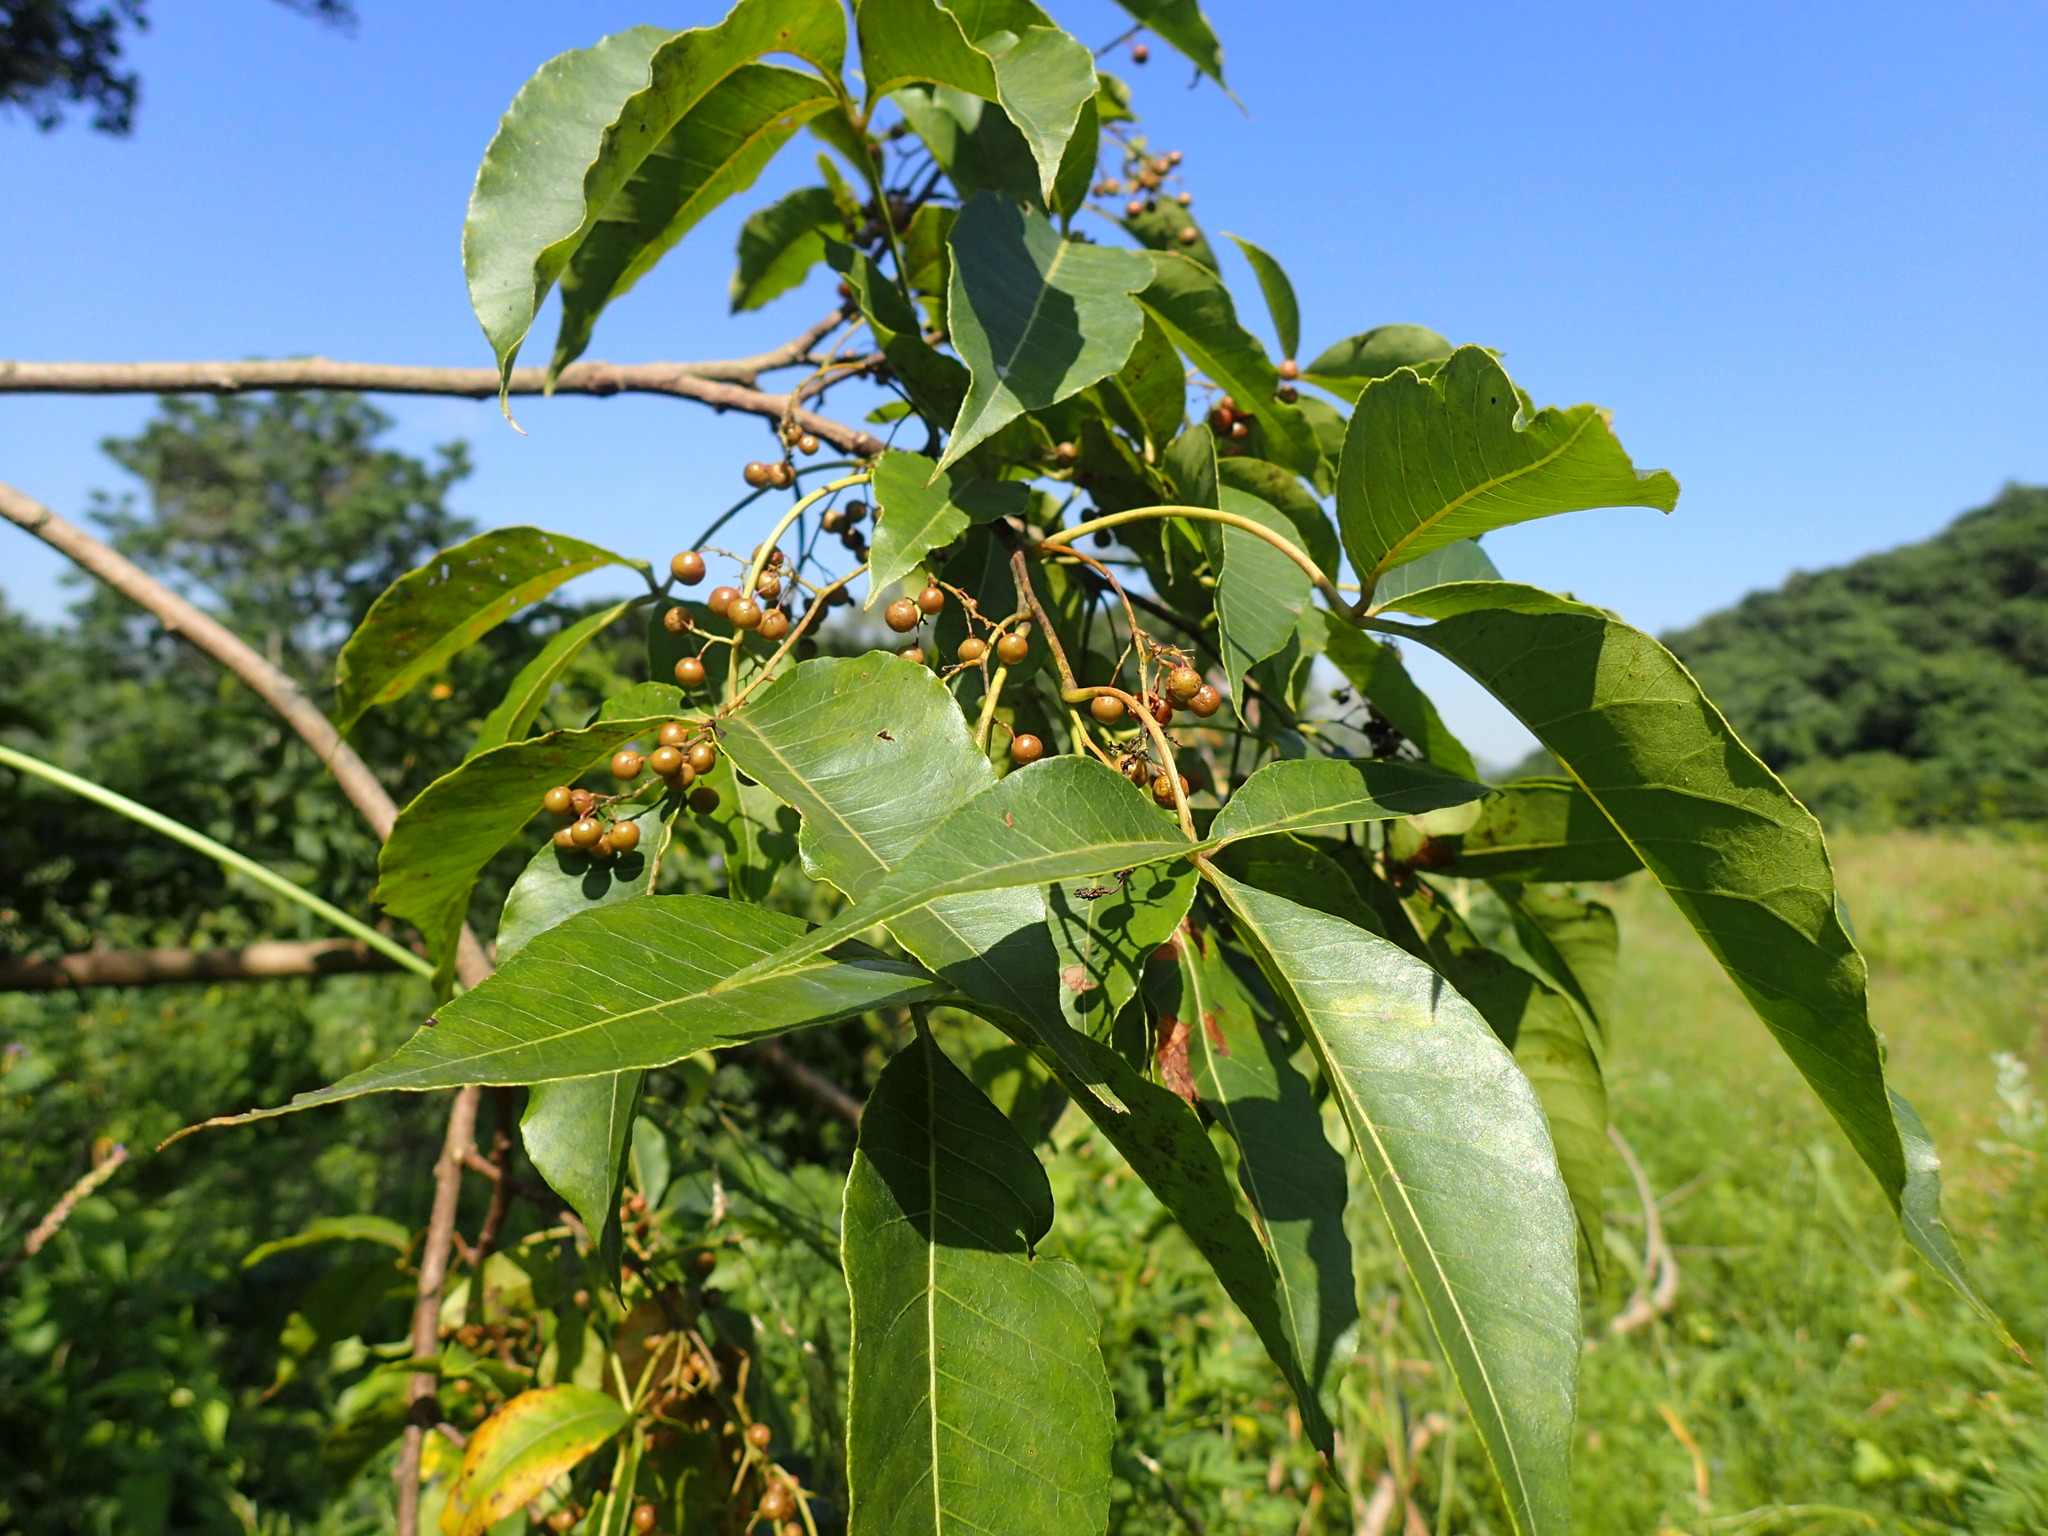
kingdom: Plantae
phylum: Tracheophyta
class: Magnoliopsida
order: Sapindales
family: Anacardiaceae
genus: Searsia
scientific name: Searsia chirindensis
